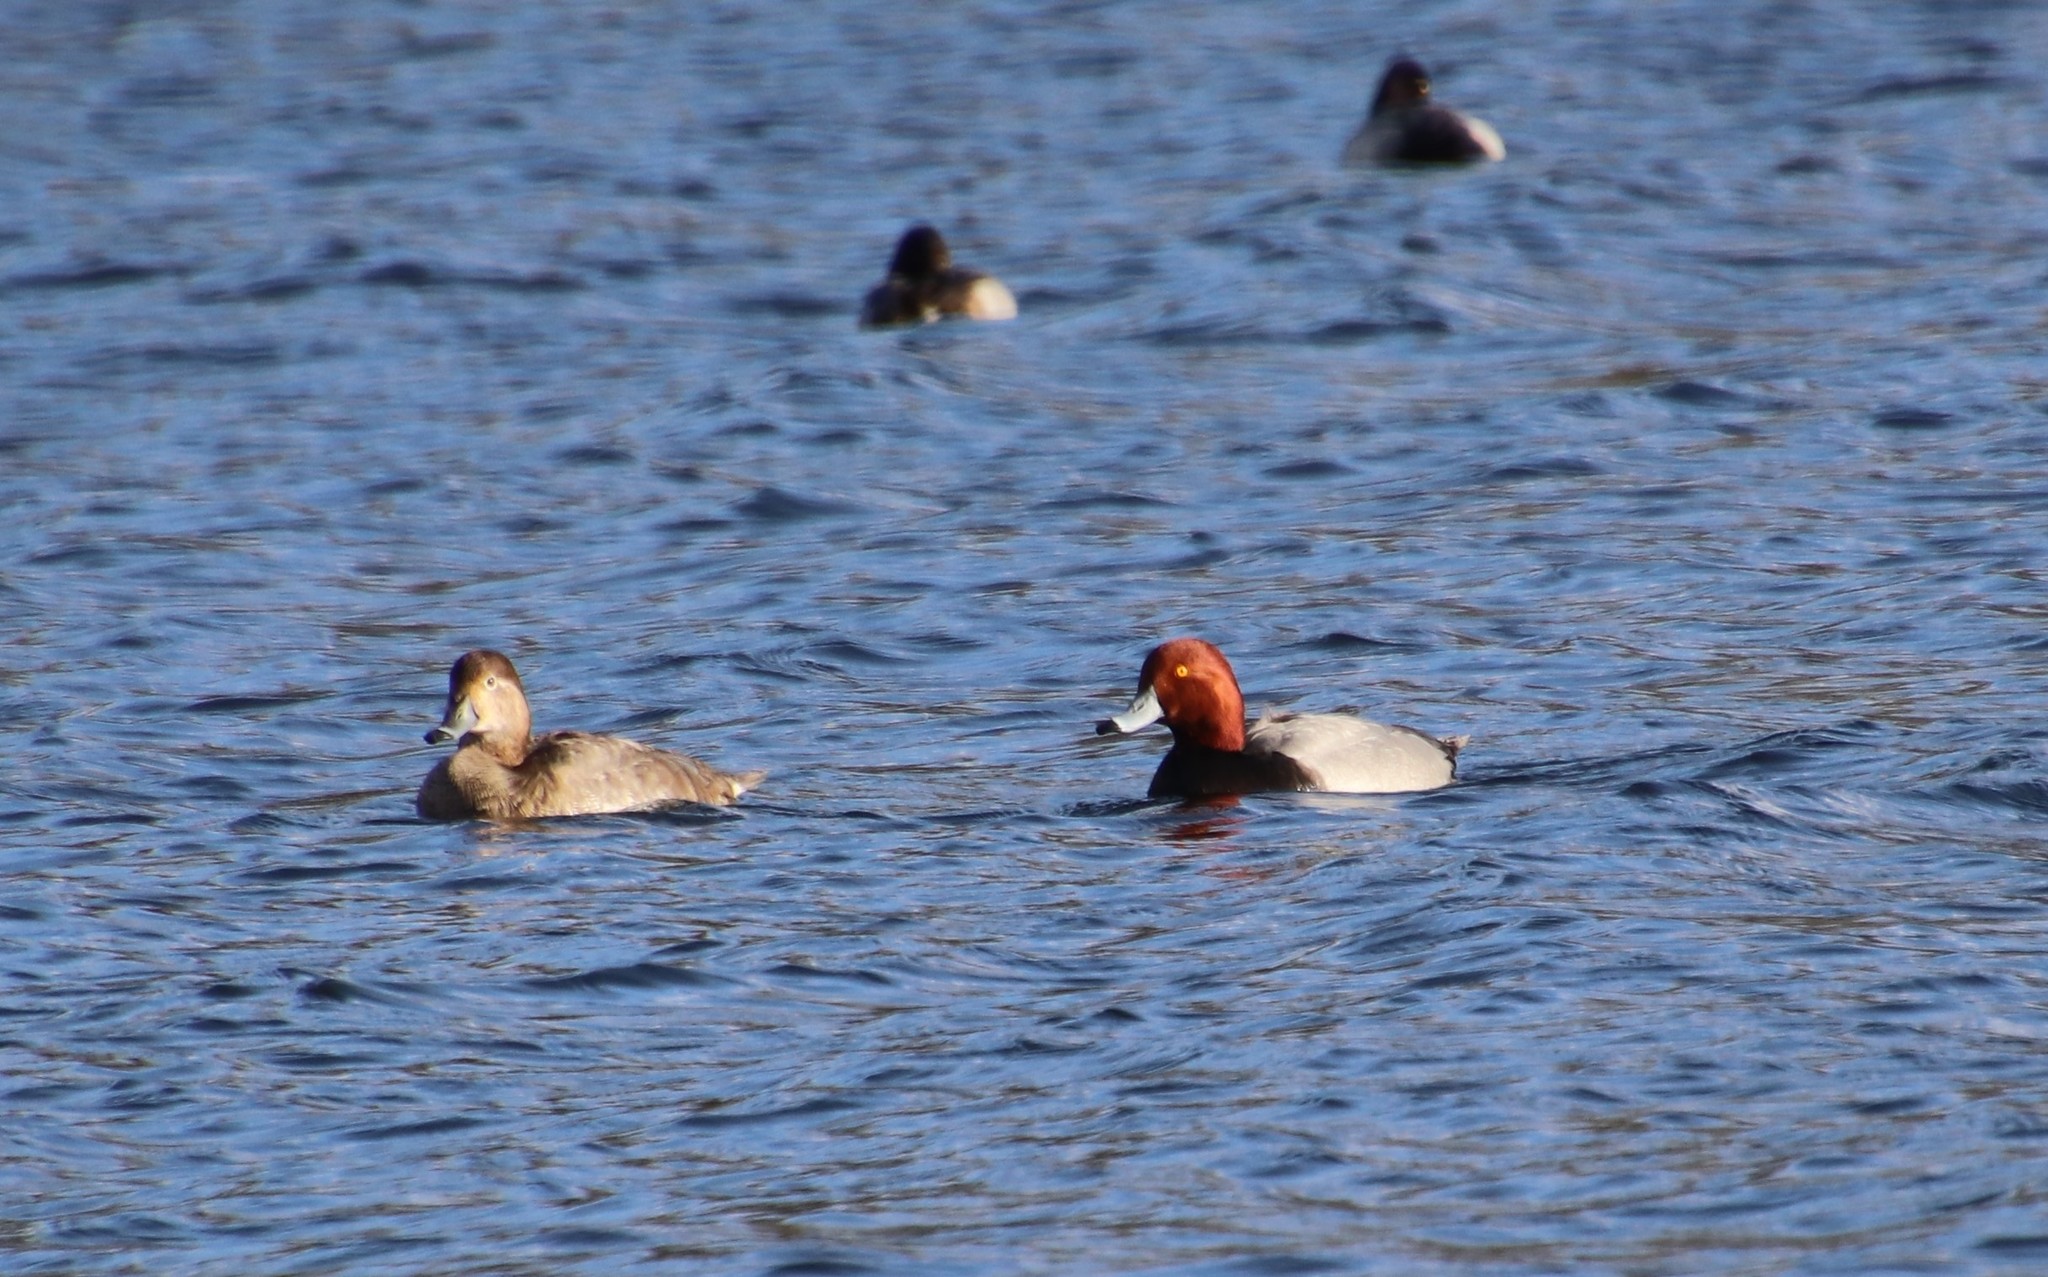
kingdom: Animalia
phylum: Chordata
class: Aves
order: Anseriformes
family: Anatidae
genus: Aythya
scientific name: Aythya americana
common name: Redhead
